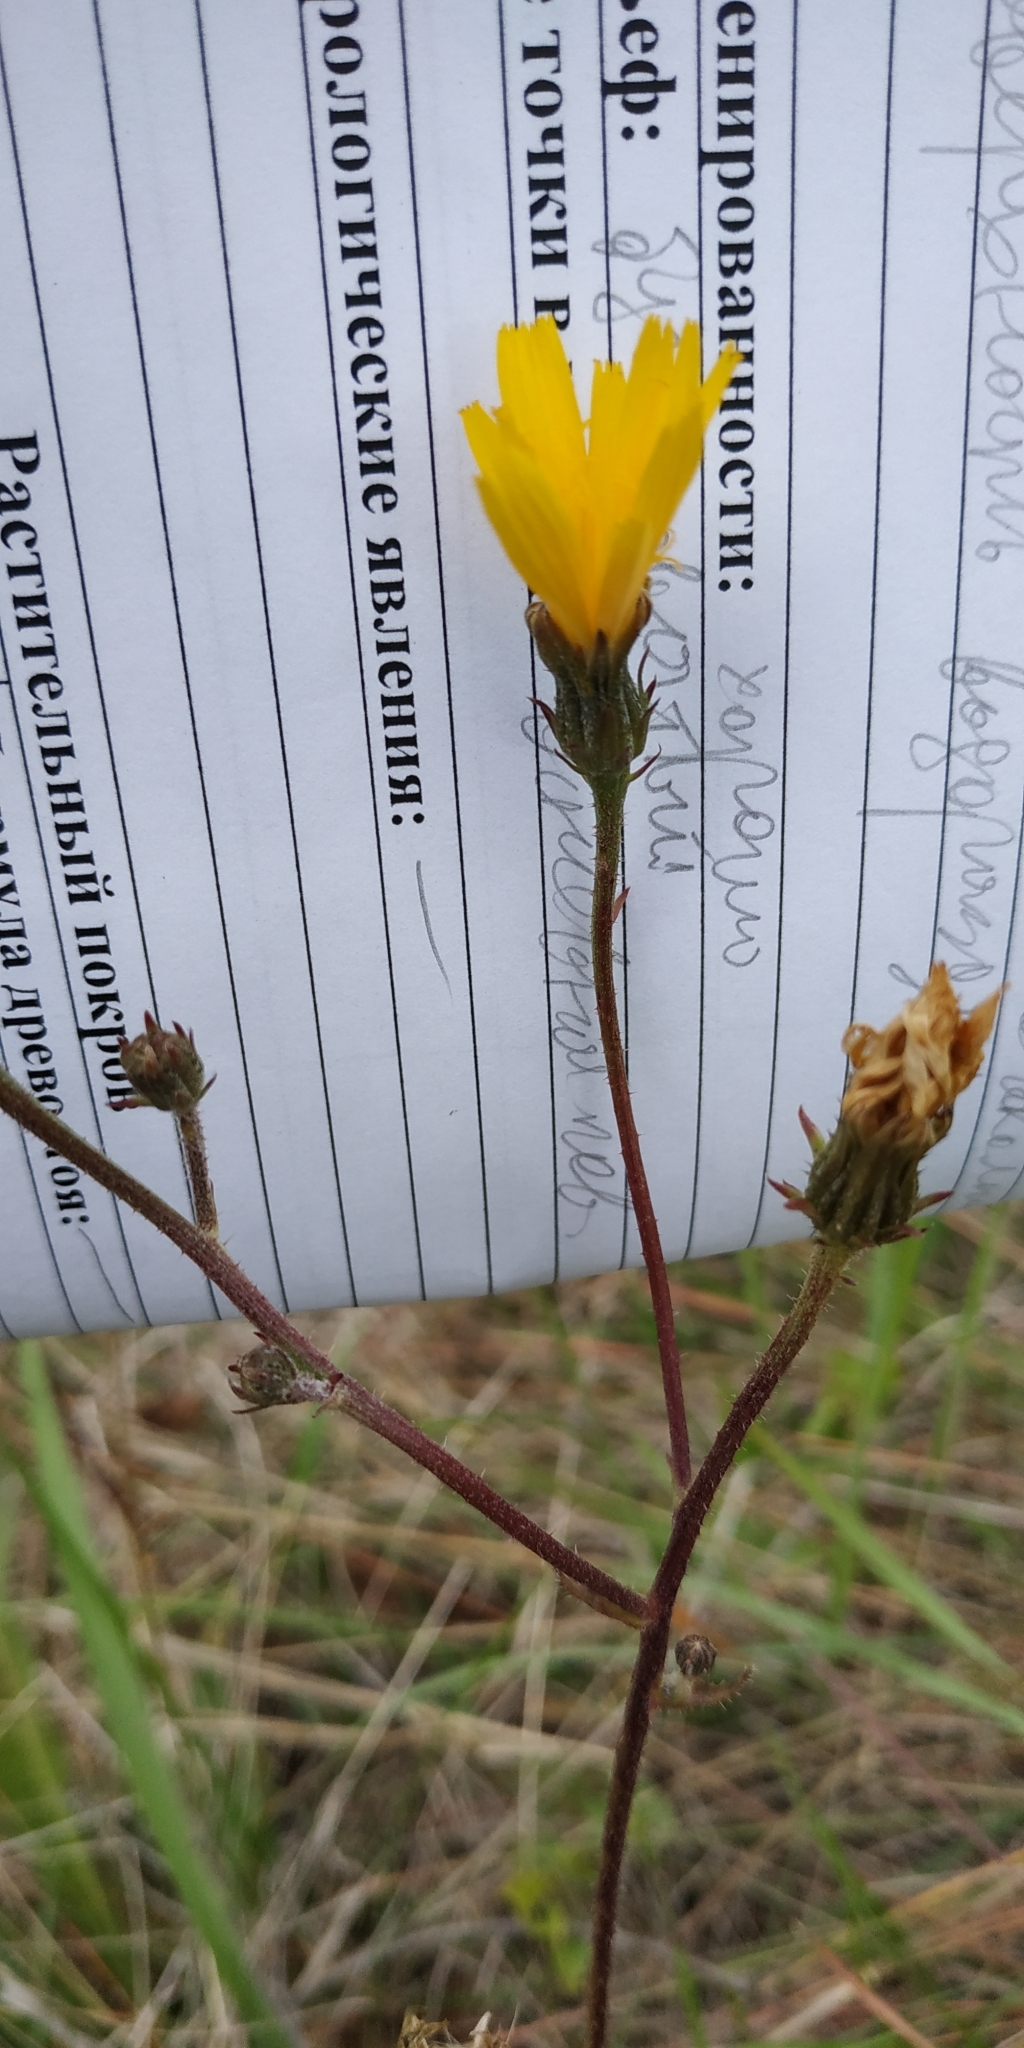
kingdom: Plantae
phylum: Tracheophyta
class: Magnoliopsida
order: Asterales
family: Asteraceae
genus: Picris
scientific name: Picris hieracioides
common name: Hawkweed oxtongue
